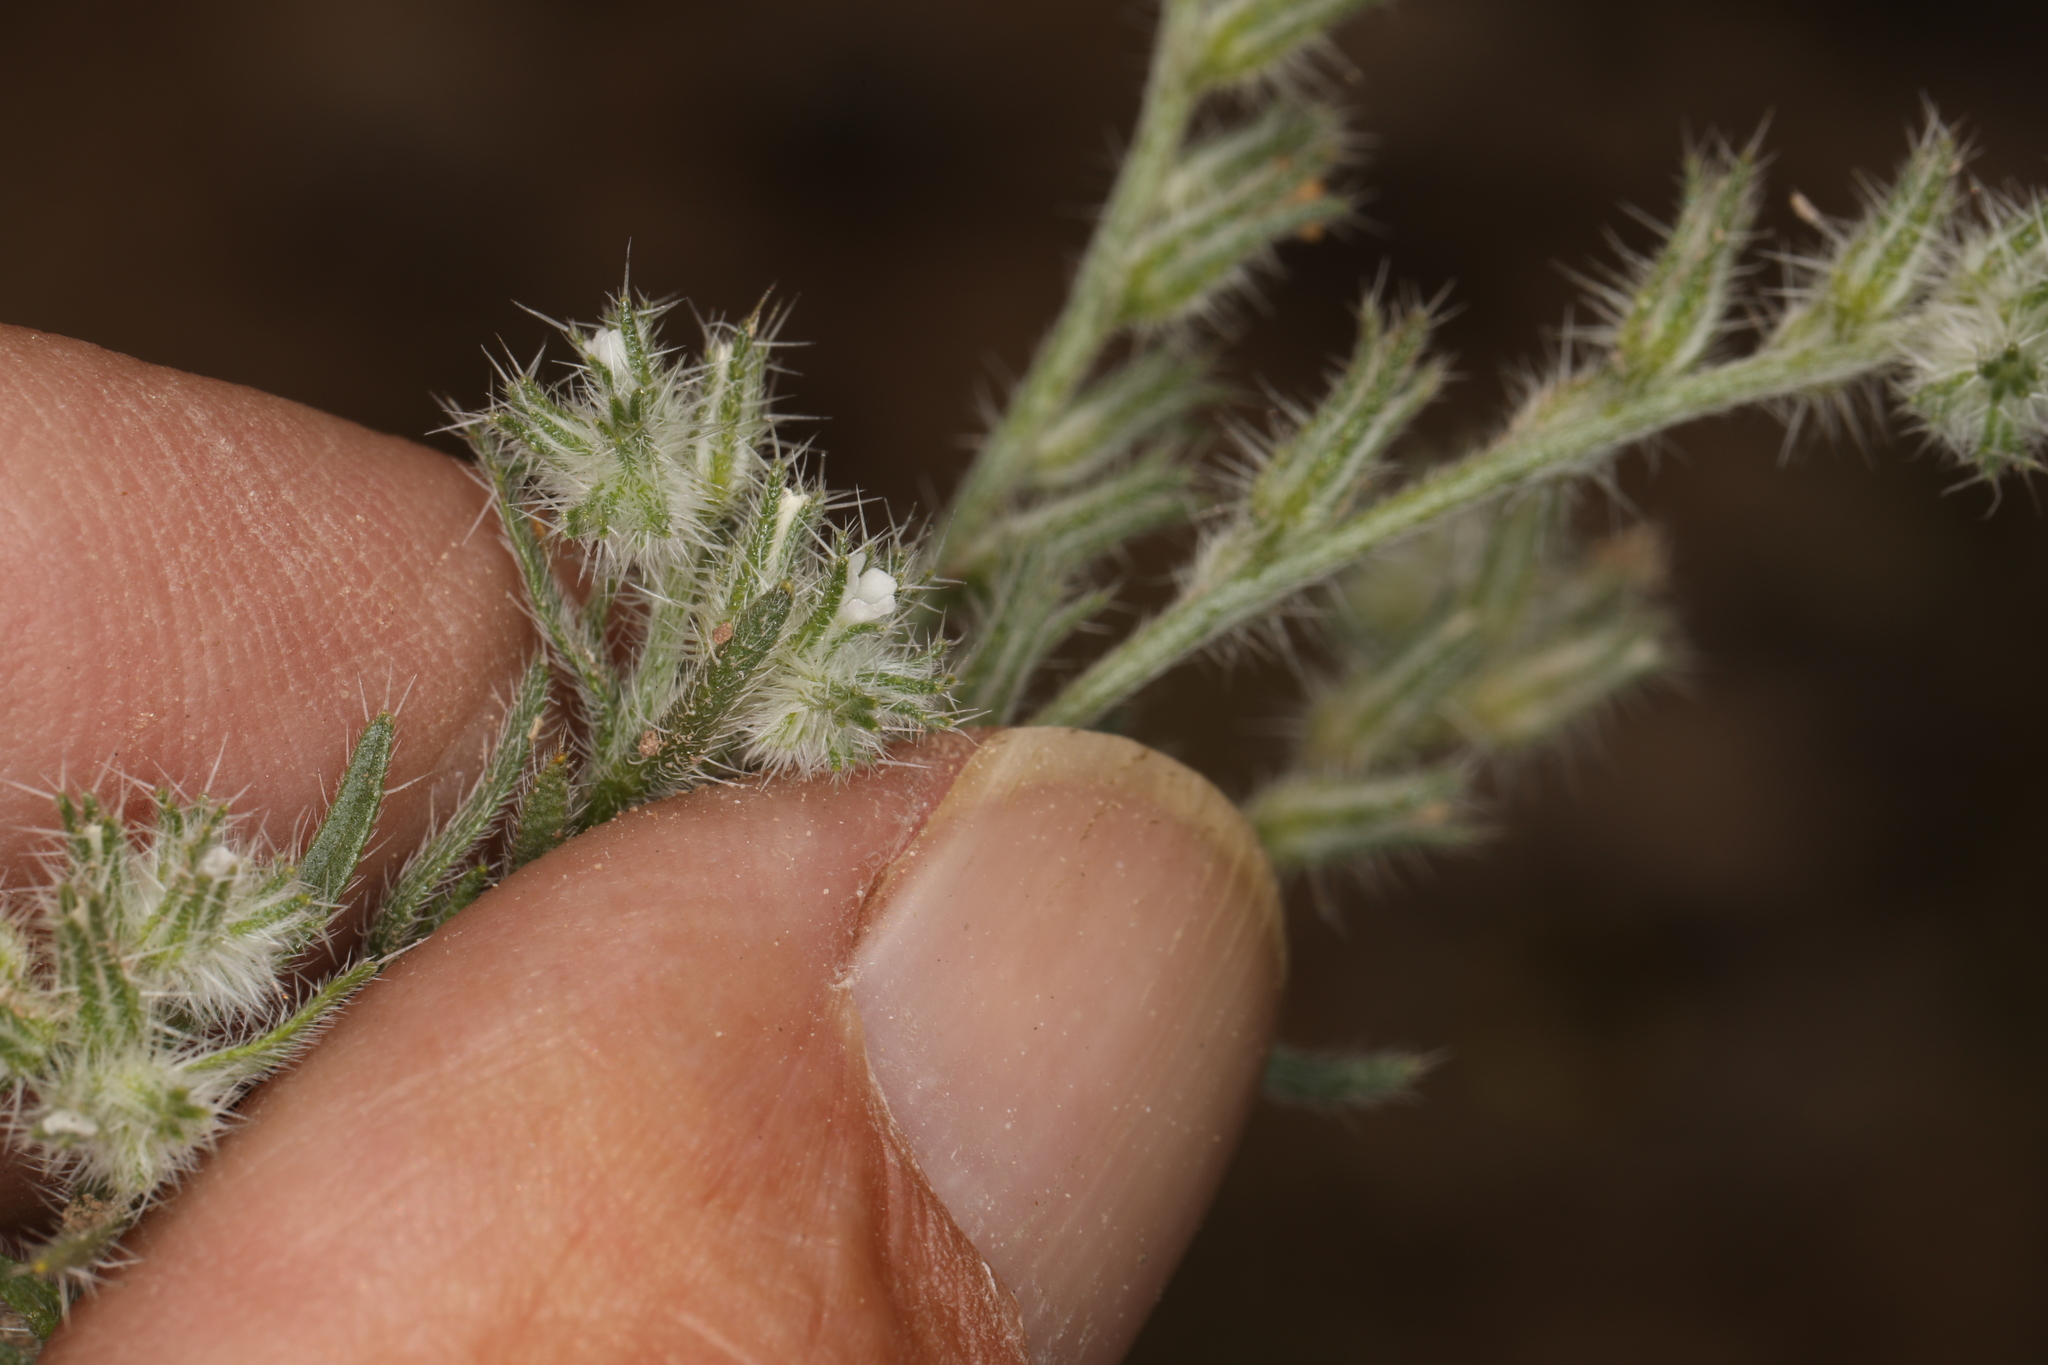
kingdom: Plantae
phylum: Tracheophyta
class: Magnoliopsida
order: Boraginales
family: Boraginaceae
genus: Cryptantha
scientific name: Cryptantha scoparia
